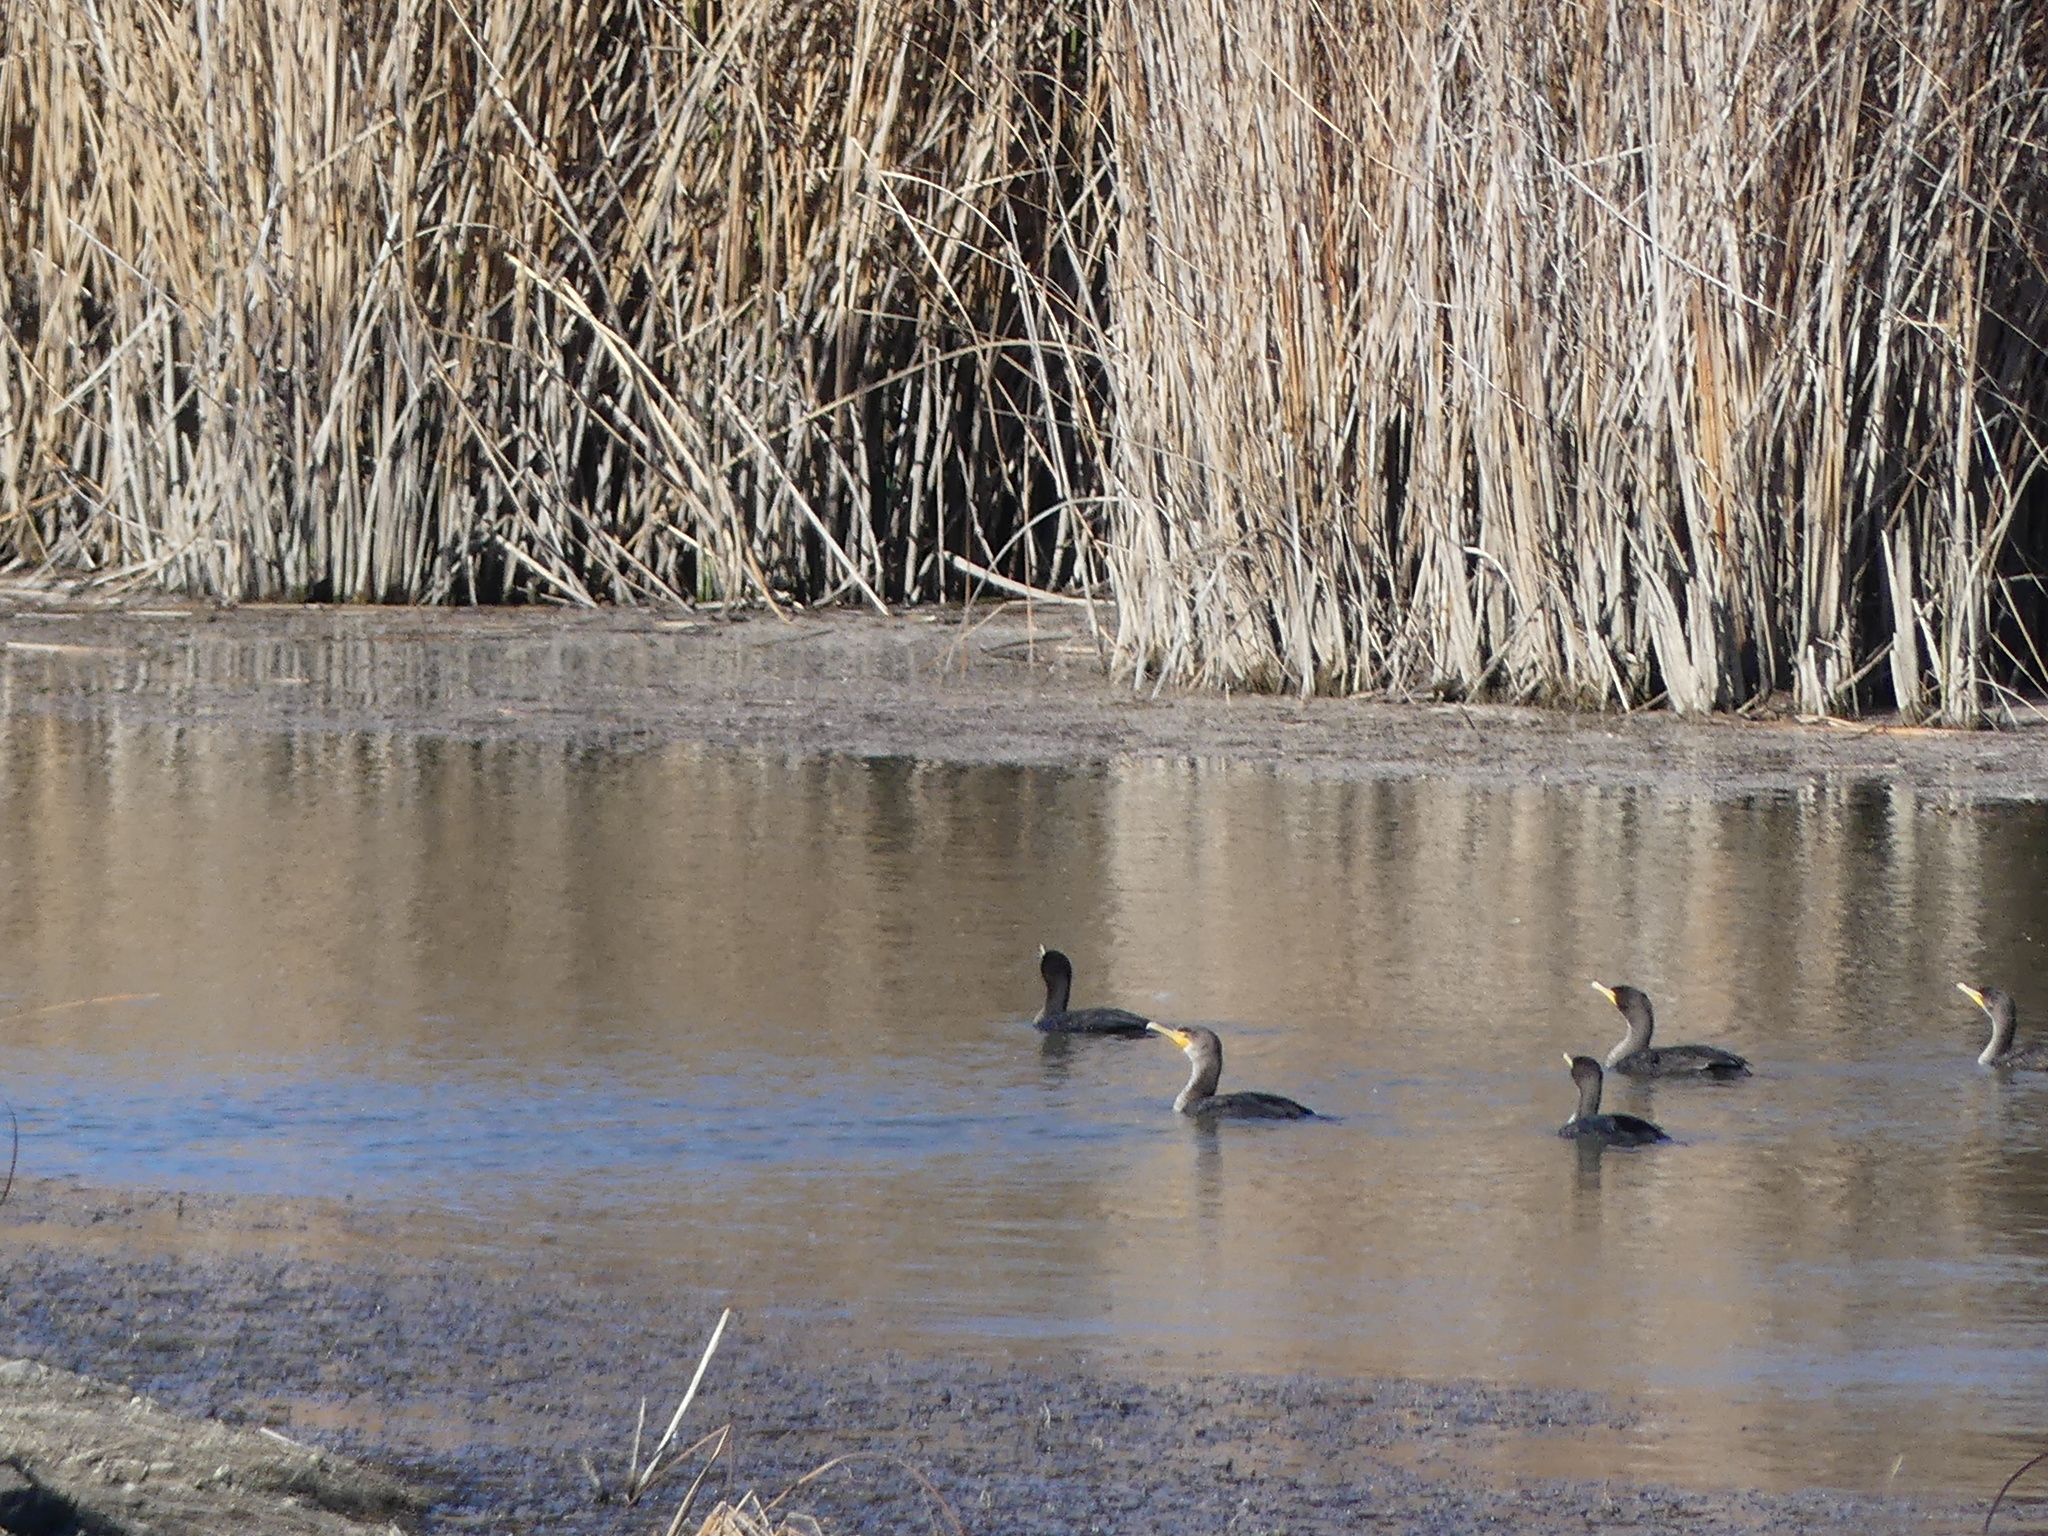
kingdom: Animalia
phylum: Chordata
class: Aves
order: Suliformes
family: Phalacrocoracidae
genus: Phalacrocorax
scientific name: Phalacrocorax auritus
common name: Double-crested cormorant
